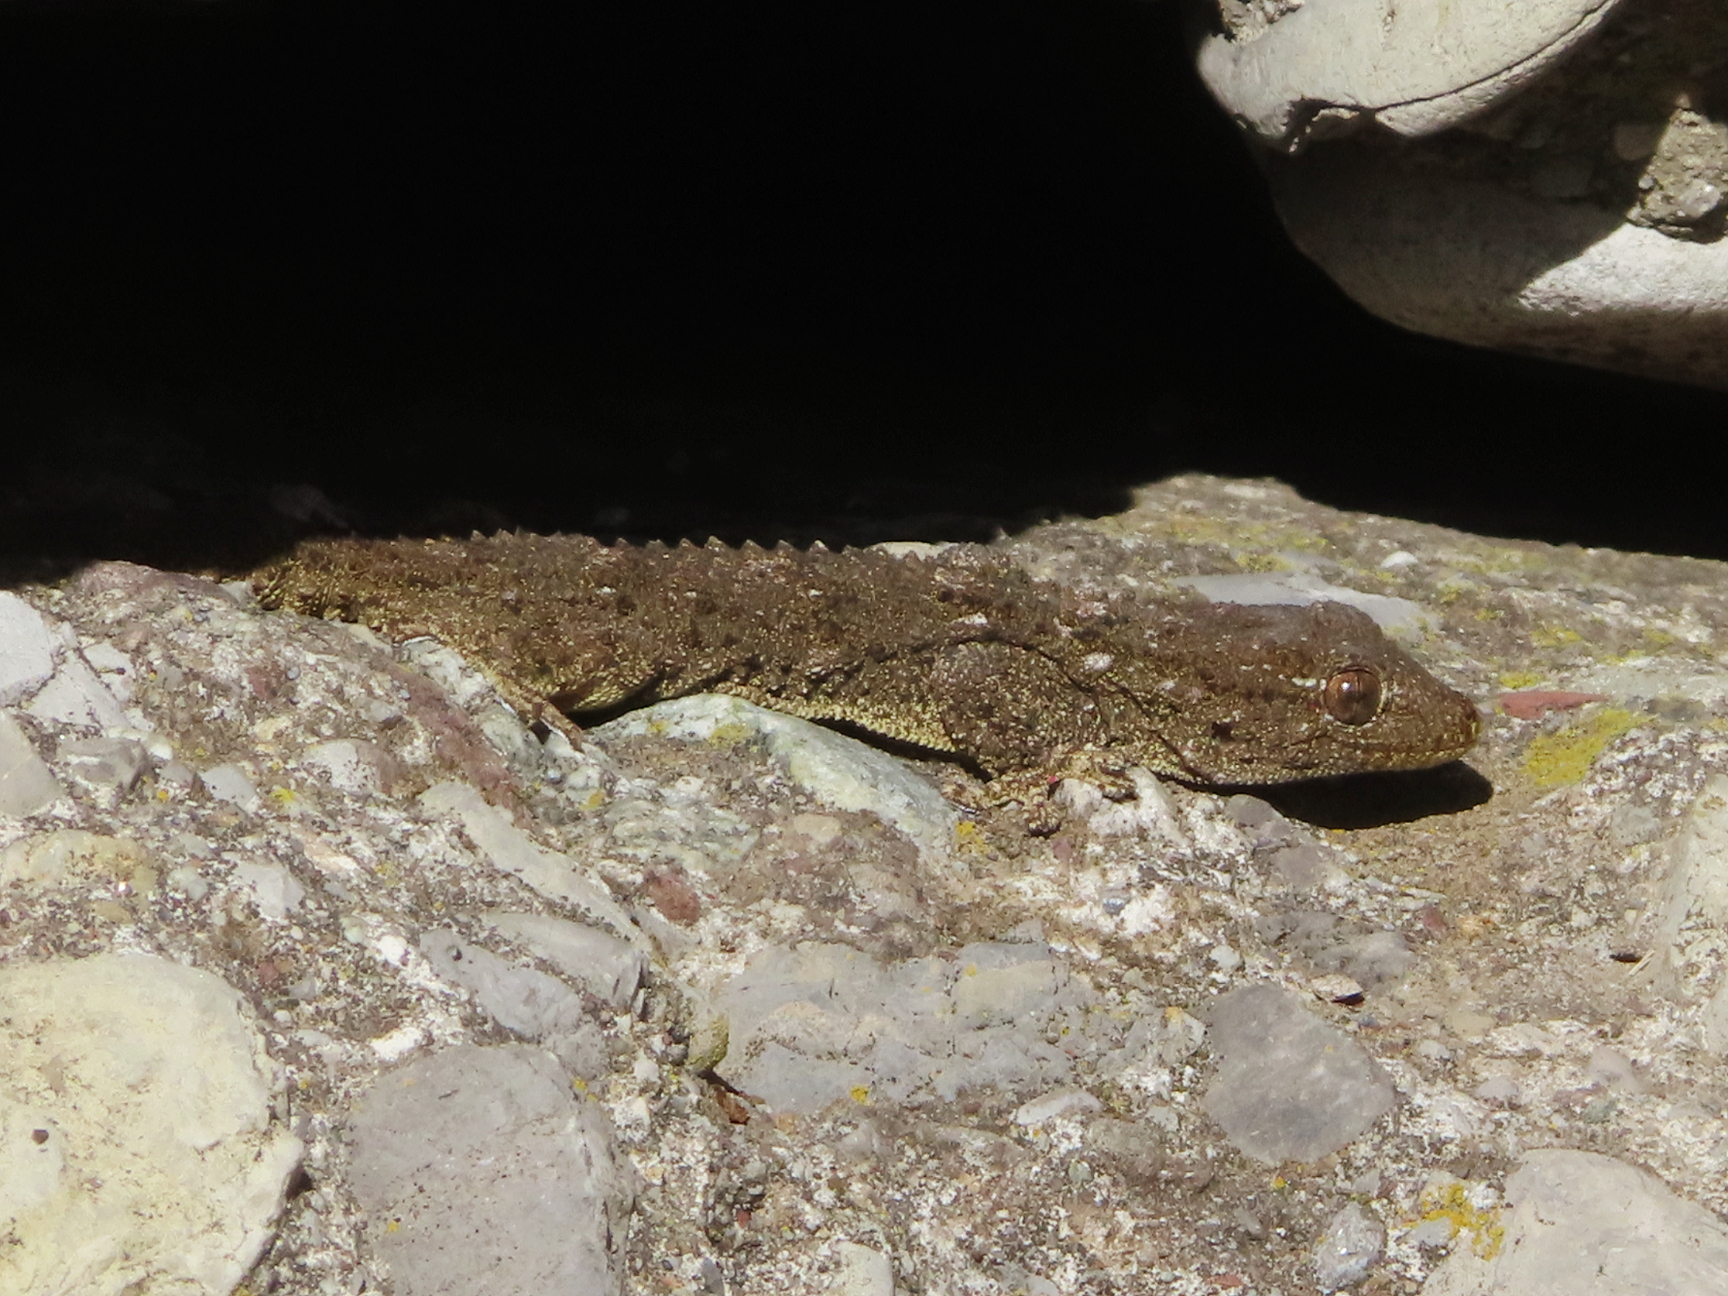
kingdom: Animalia
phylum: Chordata
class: Squamata
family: Phyllodactylidae
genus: Tarentola
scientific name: Tarentola mauritanica
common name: Moorish gecko
